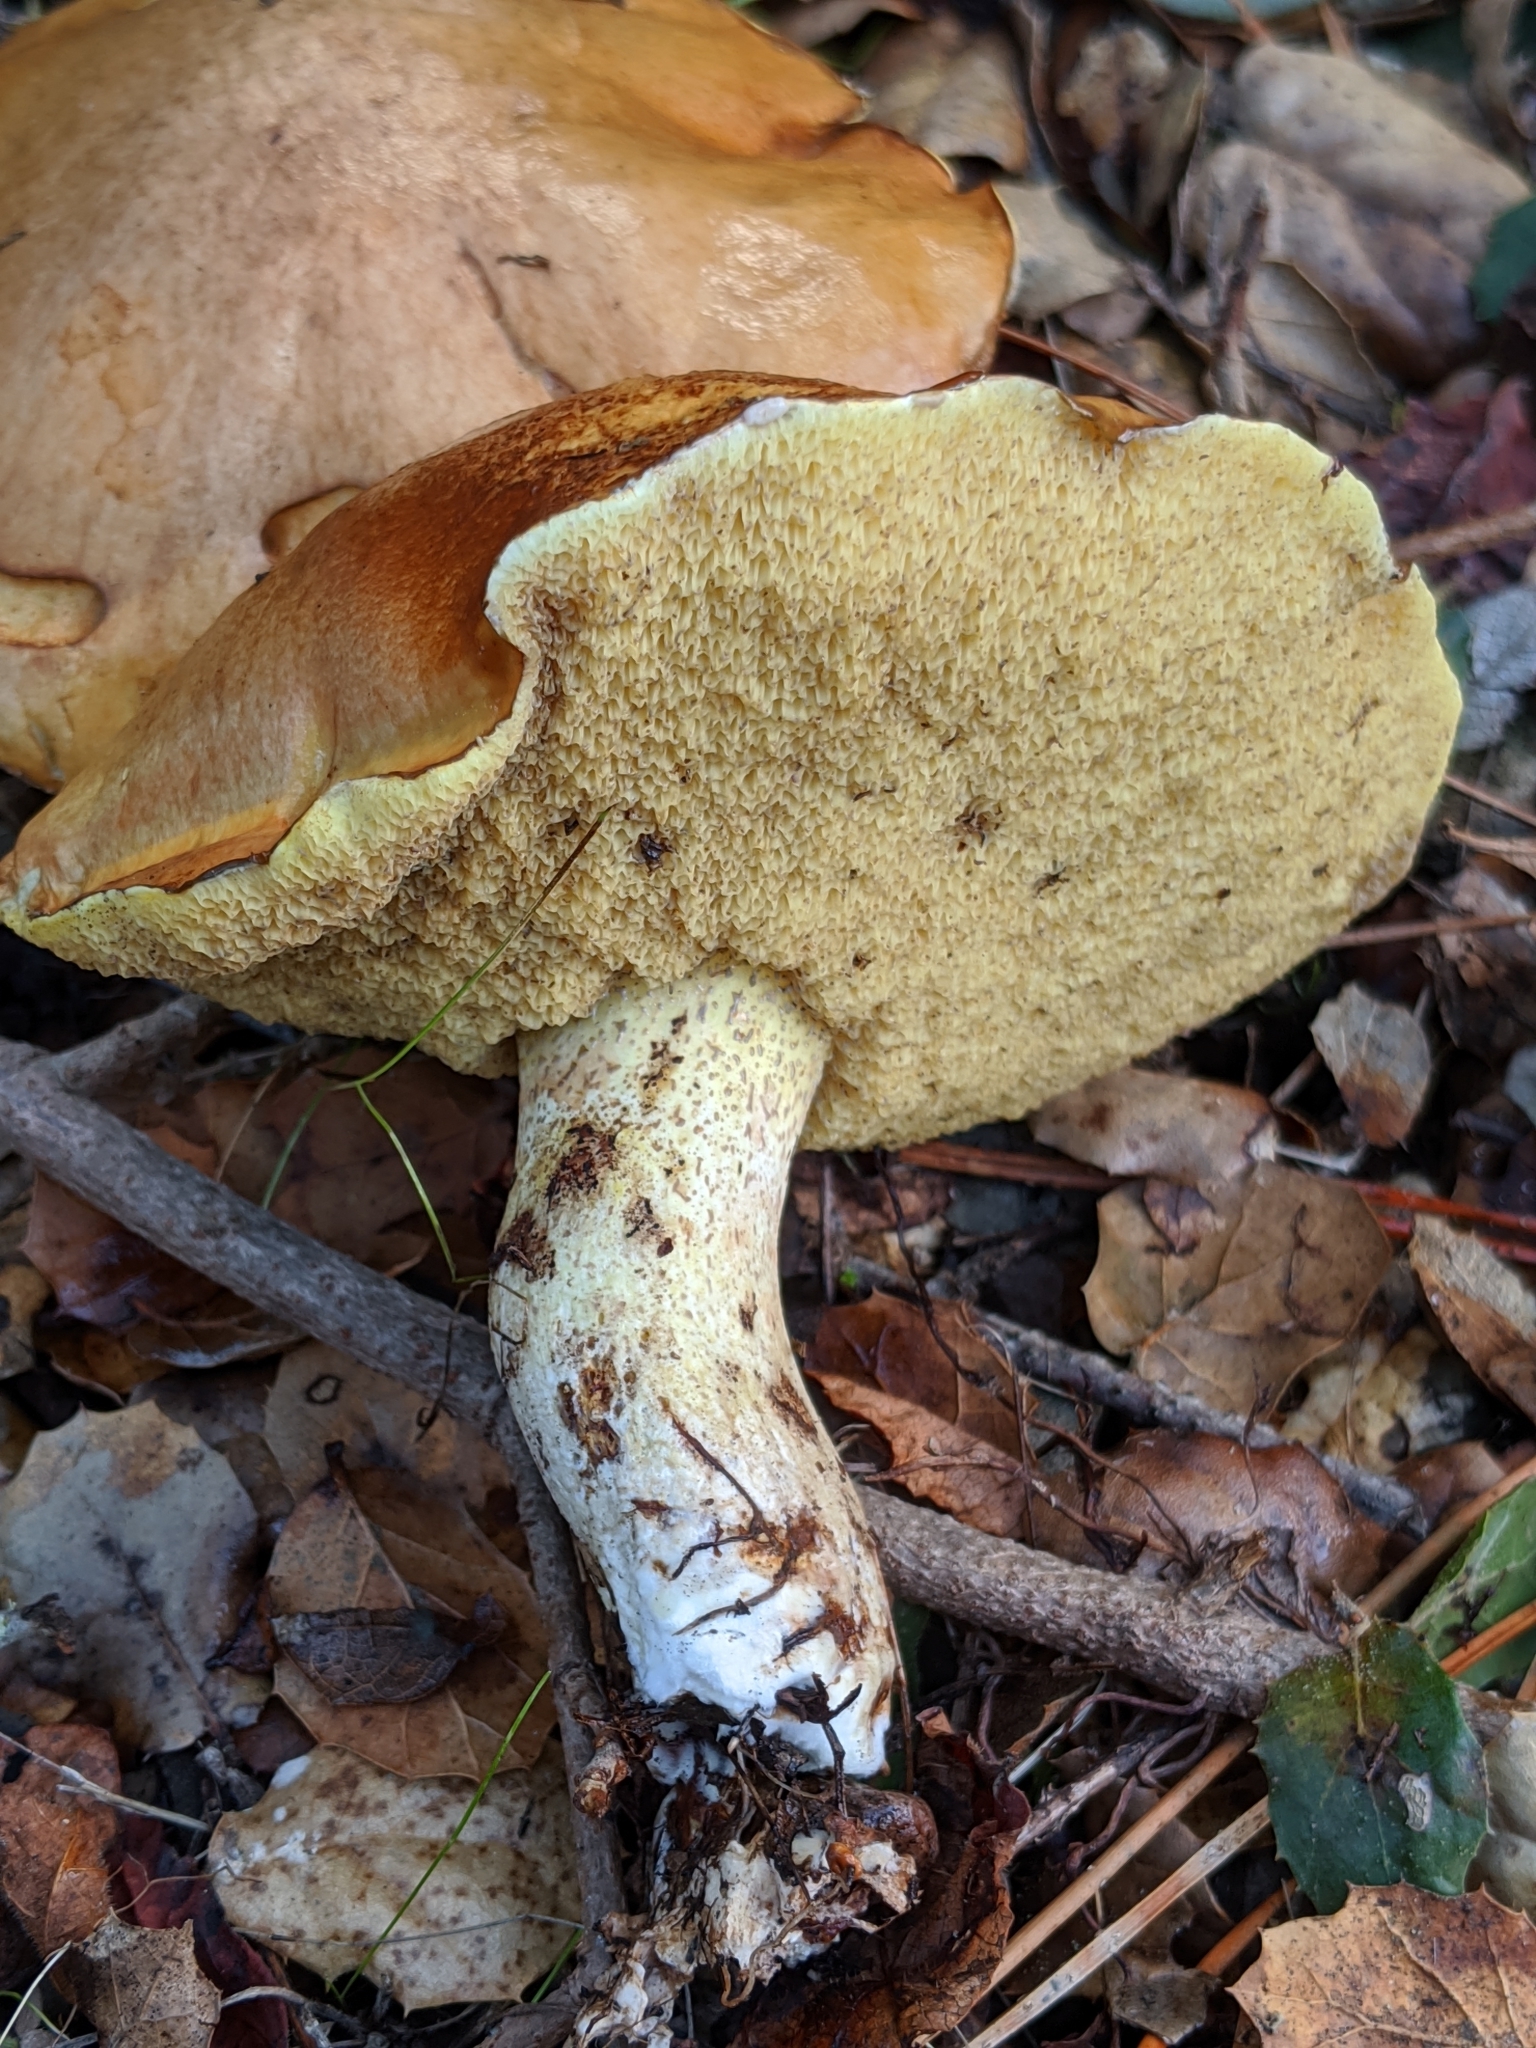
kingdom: Fungi
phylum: Basidiomycota
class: Agaricomycetes
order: Boletales
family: Suillaceae
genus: Suillus
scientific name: Suillus pungens
